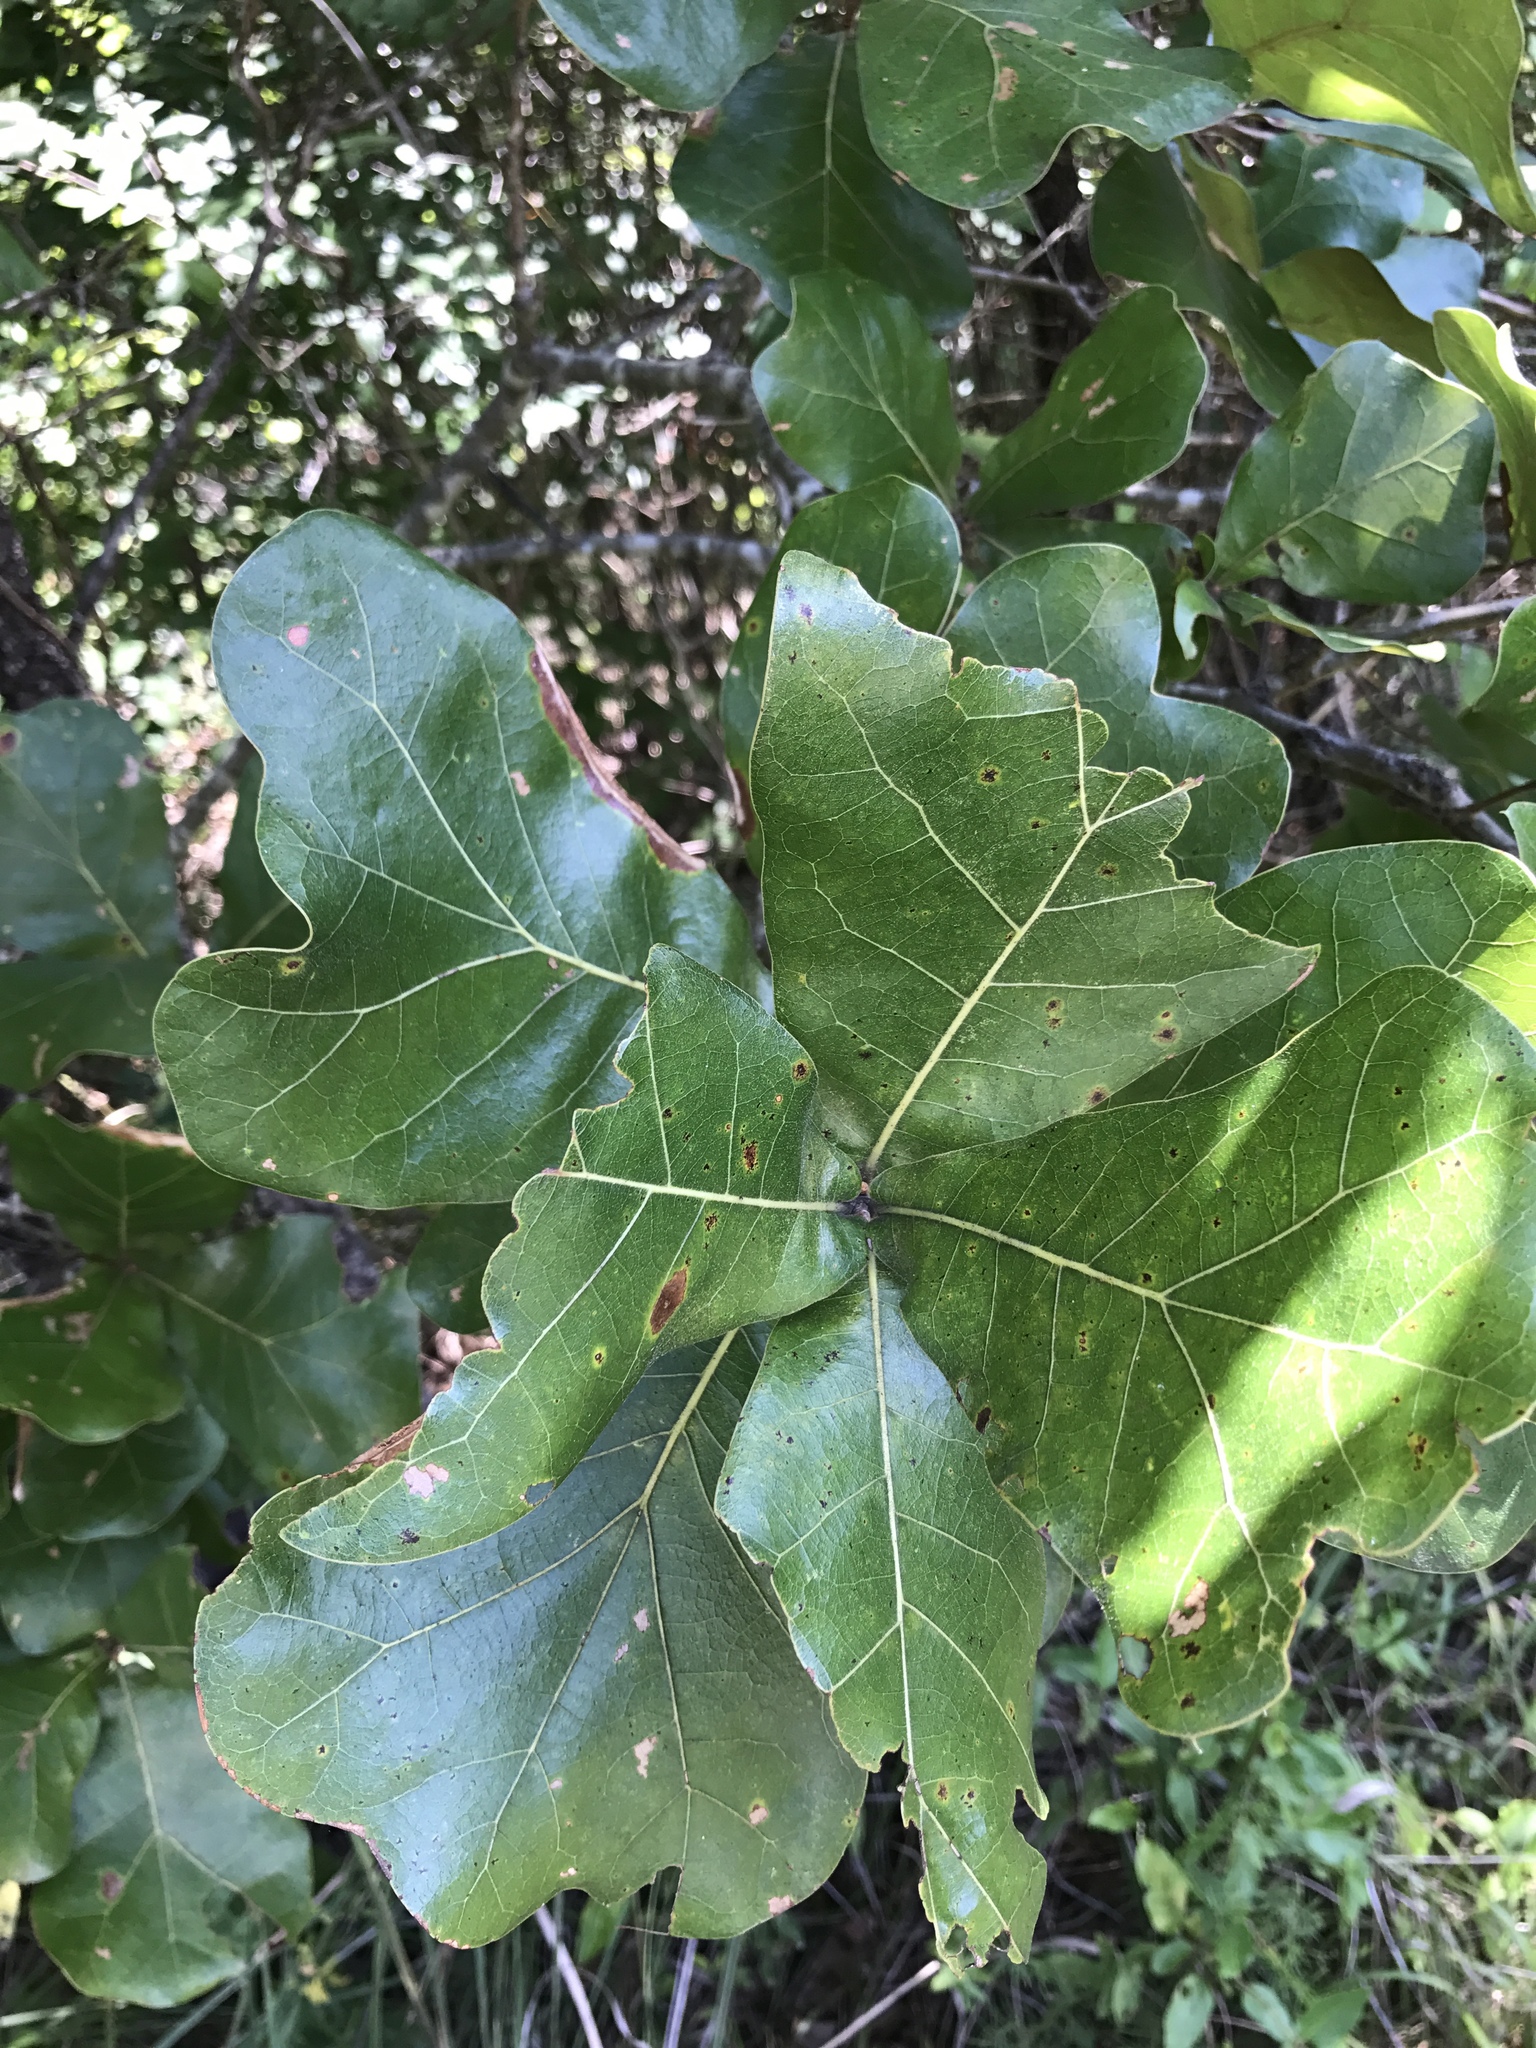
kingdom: Plantae
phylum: Tracheophyta
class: Magnoliopsida
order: Fagales
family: Fagaceae
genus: Quercus
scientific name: Quercus marilandica
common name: Blackjack oak
